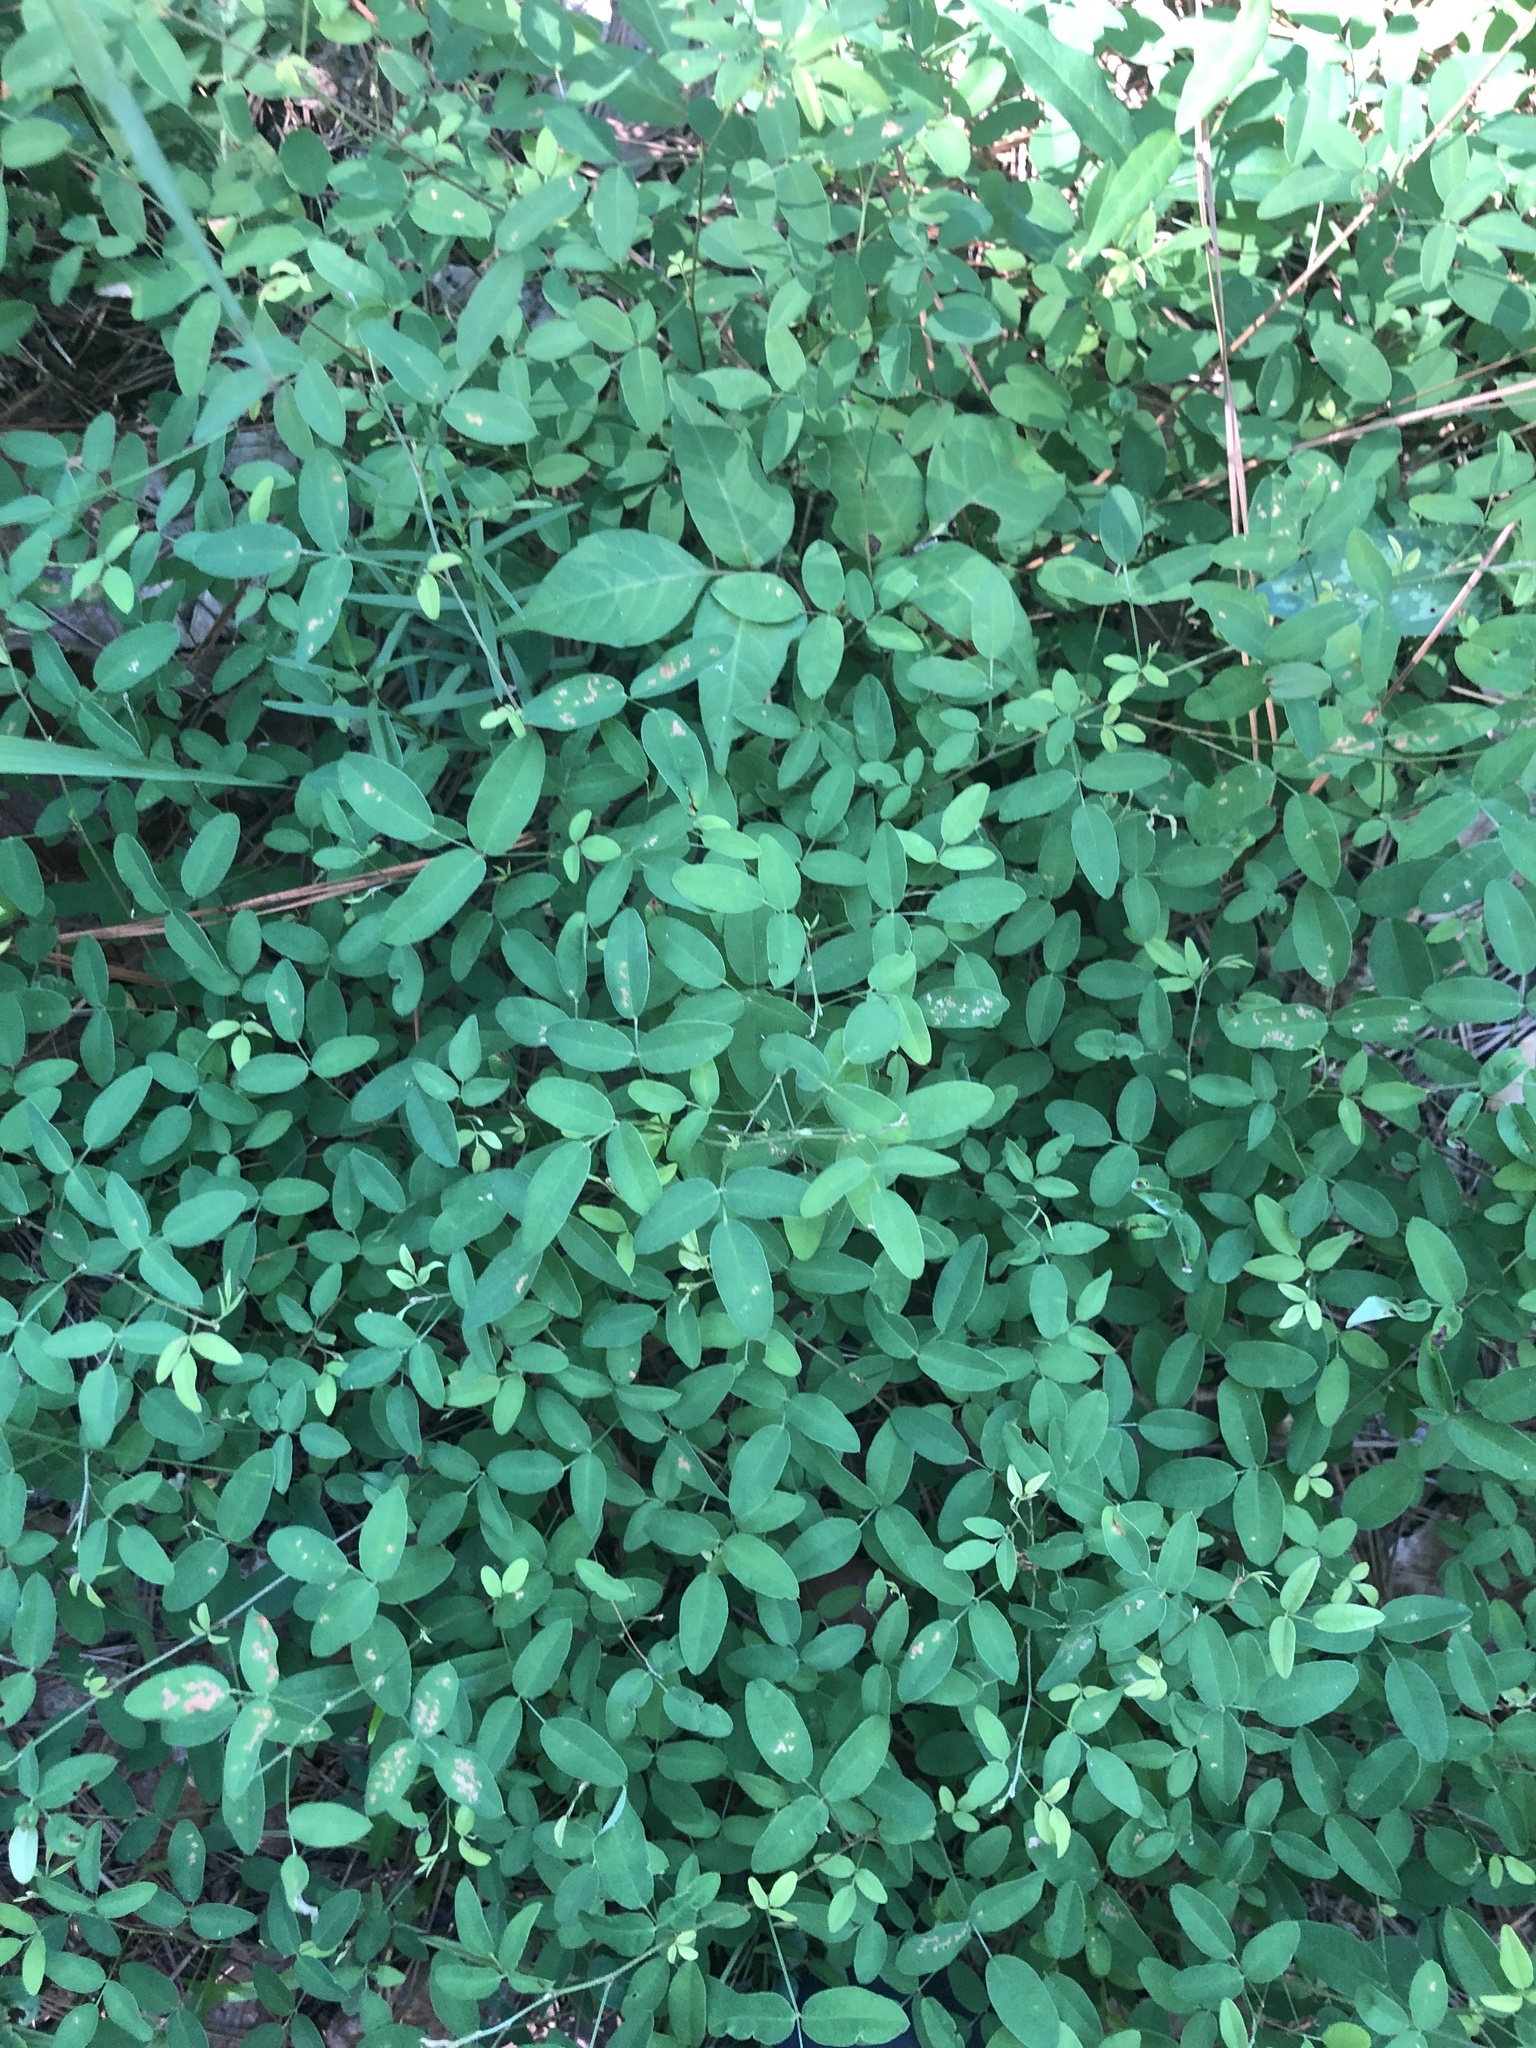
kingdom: Plantae
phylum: Tracheophyta
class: Magnoliopsida
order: Fabales
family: Fabaceae
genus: Lespedeza
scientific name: Lespedeza
